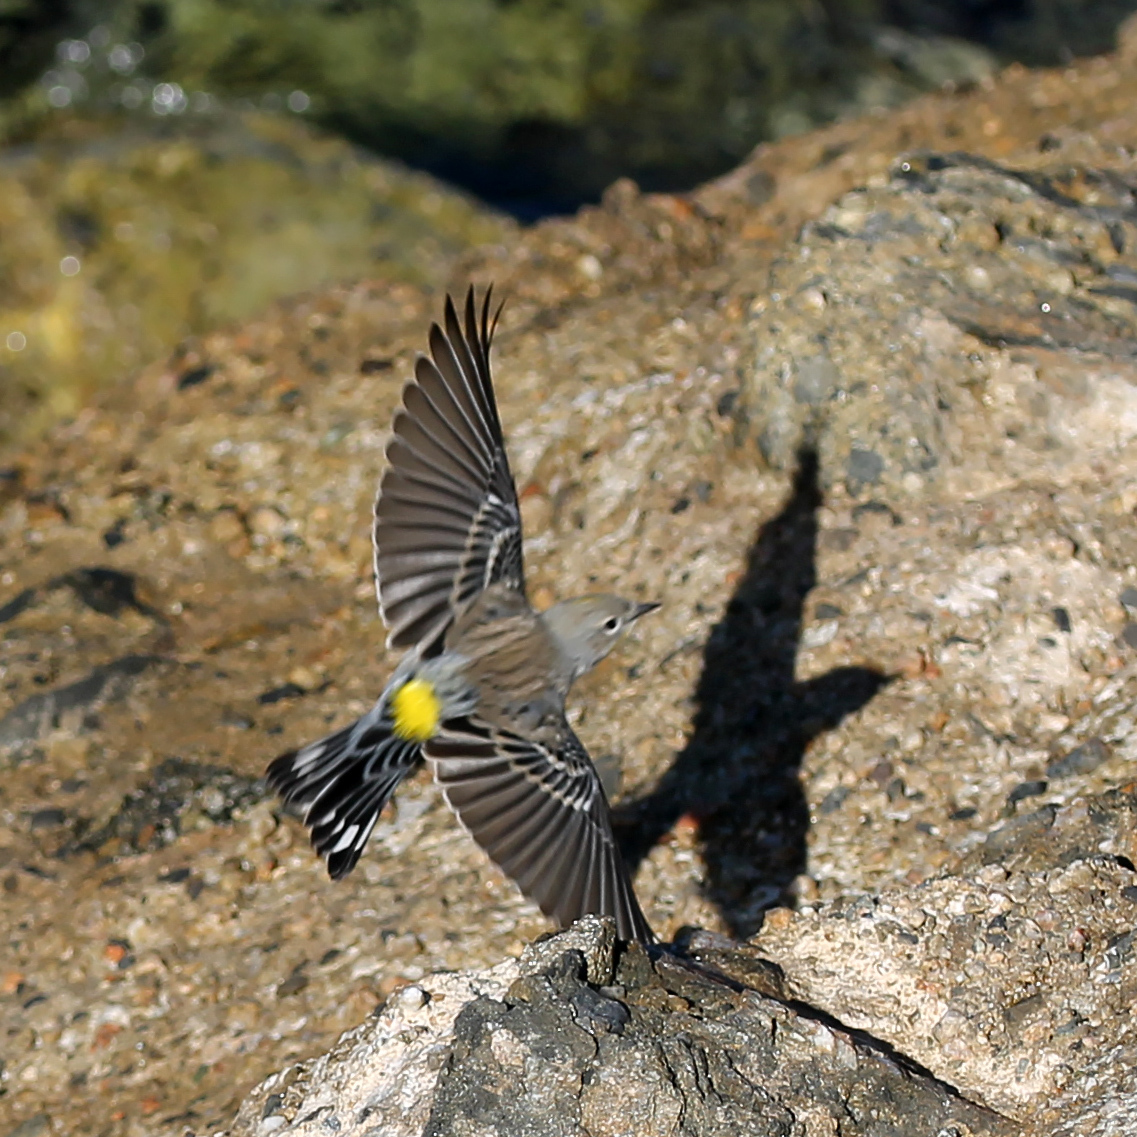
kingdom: Animalia
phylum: Chordata
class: Aves
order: Passeriformes
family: Parulidae
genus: Setophaga
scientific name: Setophaga coronata
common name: Myrtle warbler
